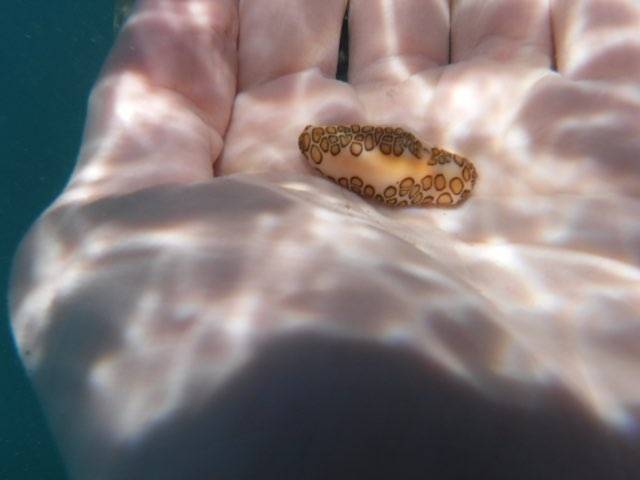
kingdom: Animalia
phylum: Mollusca
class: Gastropoda
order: Littorinimorpha
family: Ovulidae
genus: Cyphoma
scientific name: Cyphoma gibbosum
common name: Flamingo tongue
